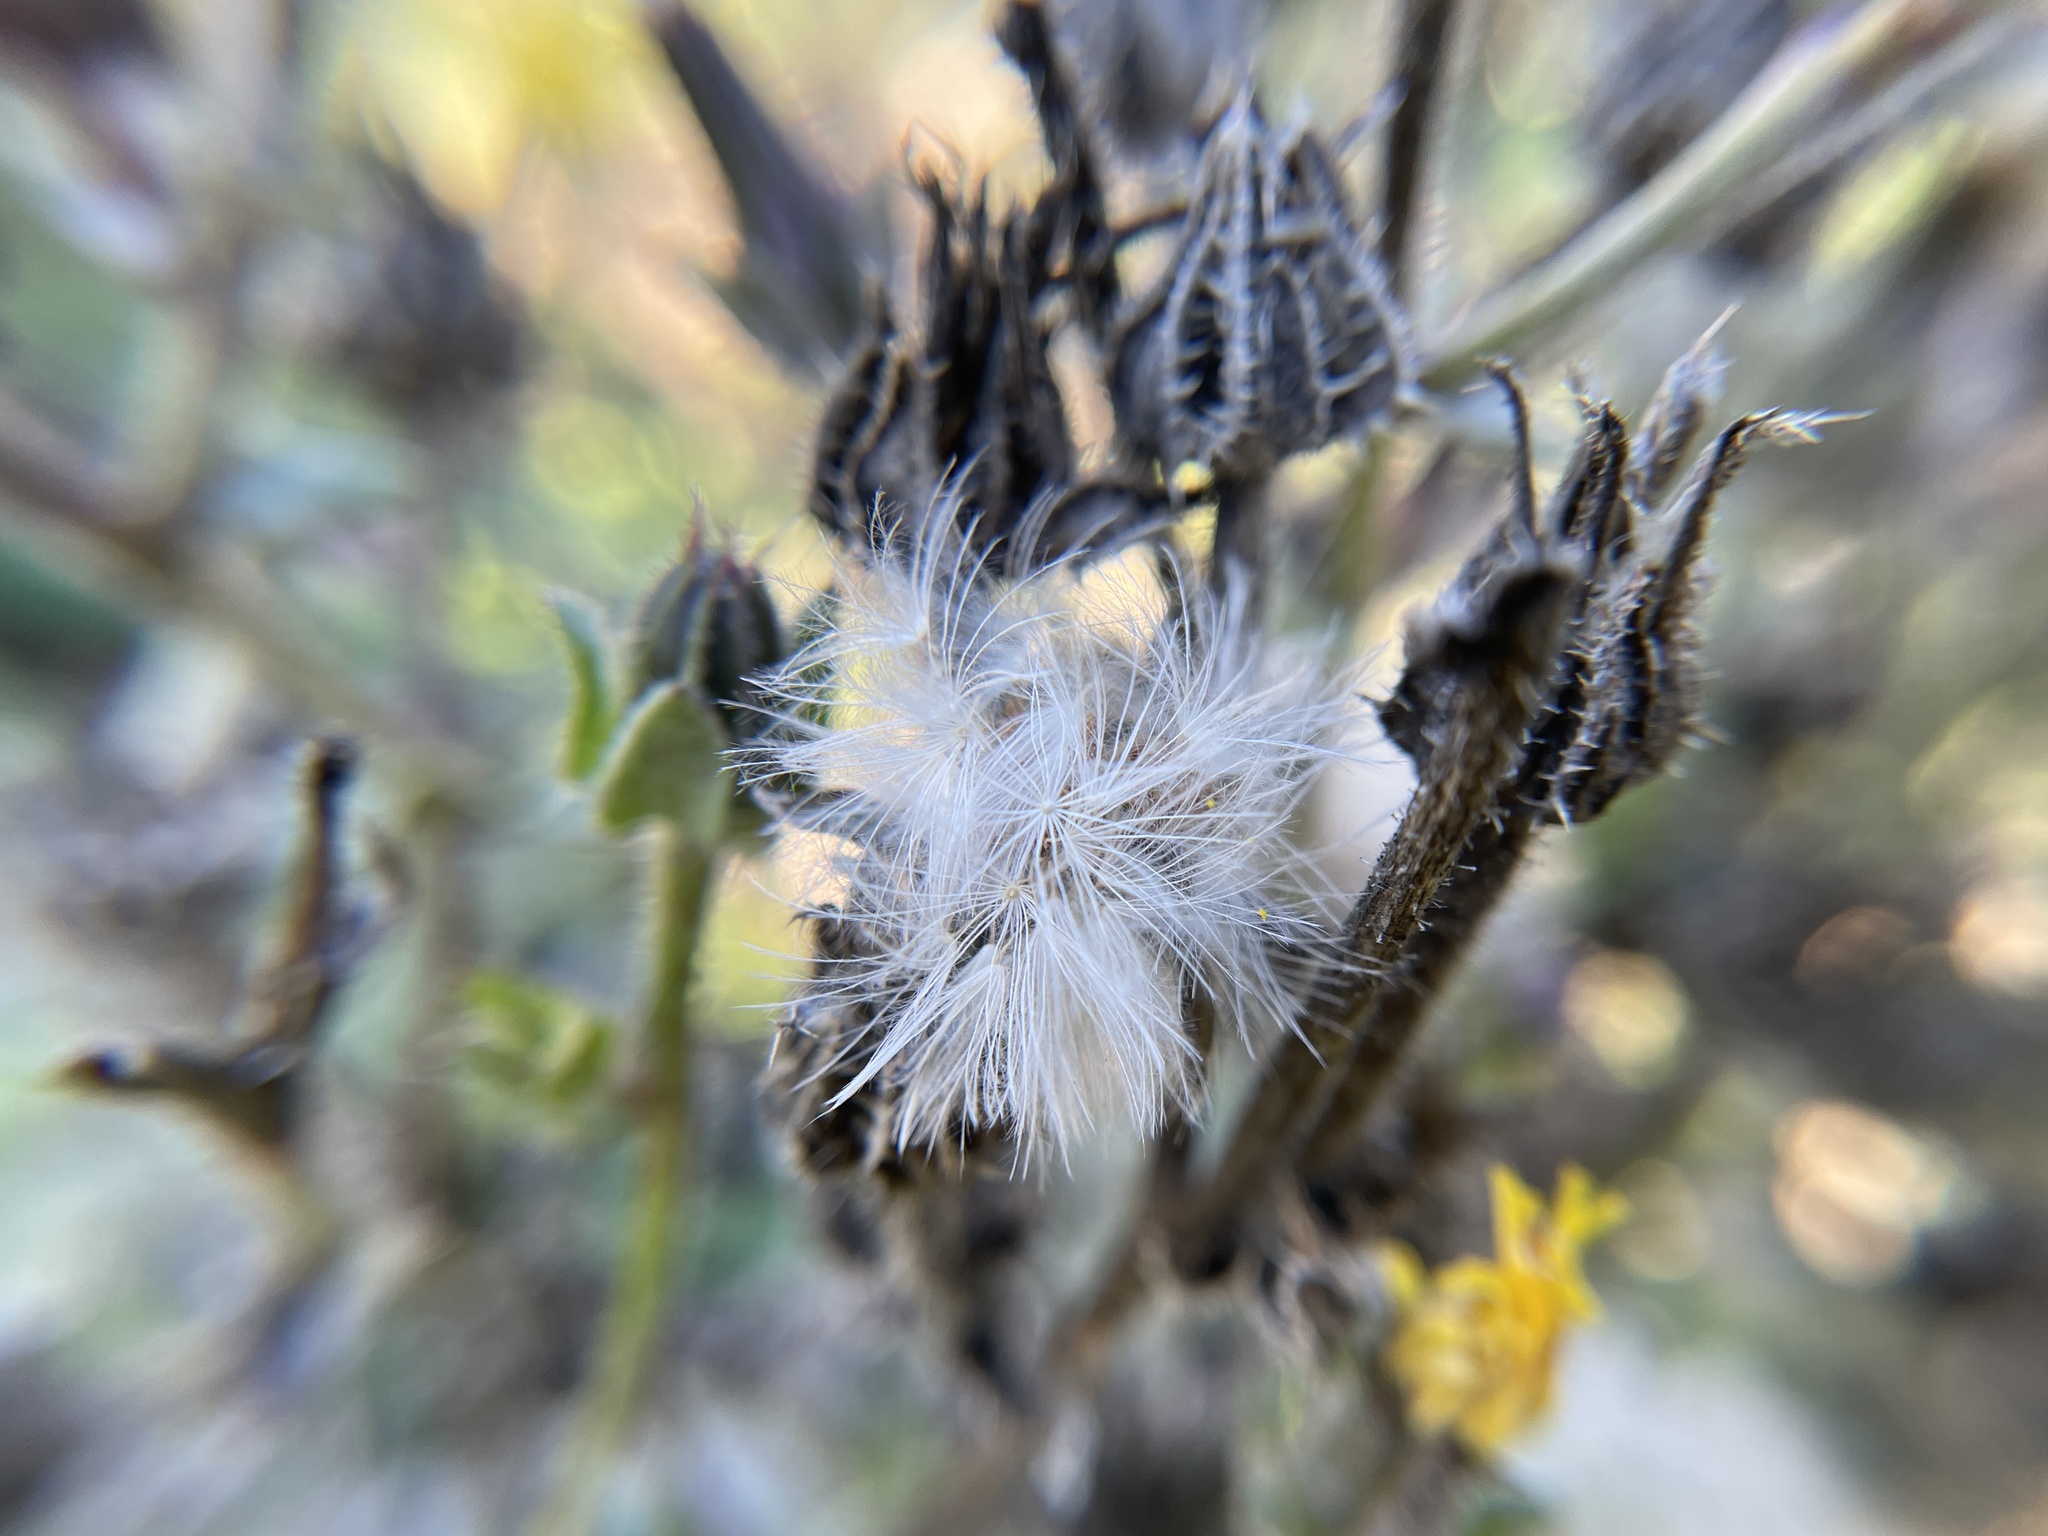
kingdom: Plantae
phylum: Tracheophyta
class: Magnoliopsida
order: Asterales
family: Asteraceae
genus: Helminthotheca
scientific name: Helminthotheca echioides
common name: Ox-tongue
